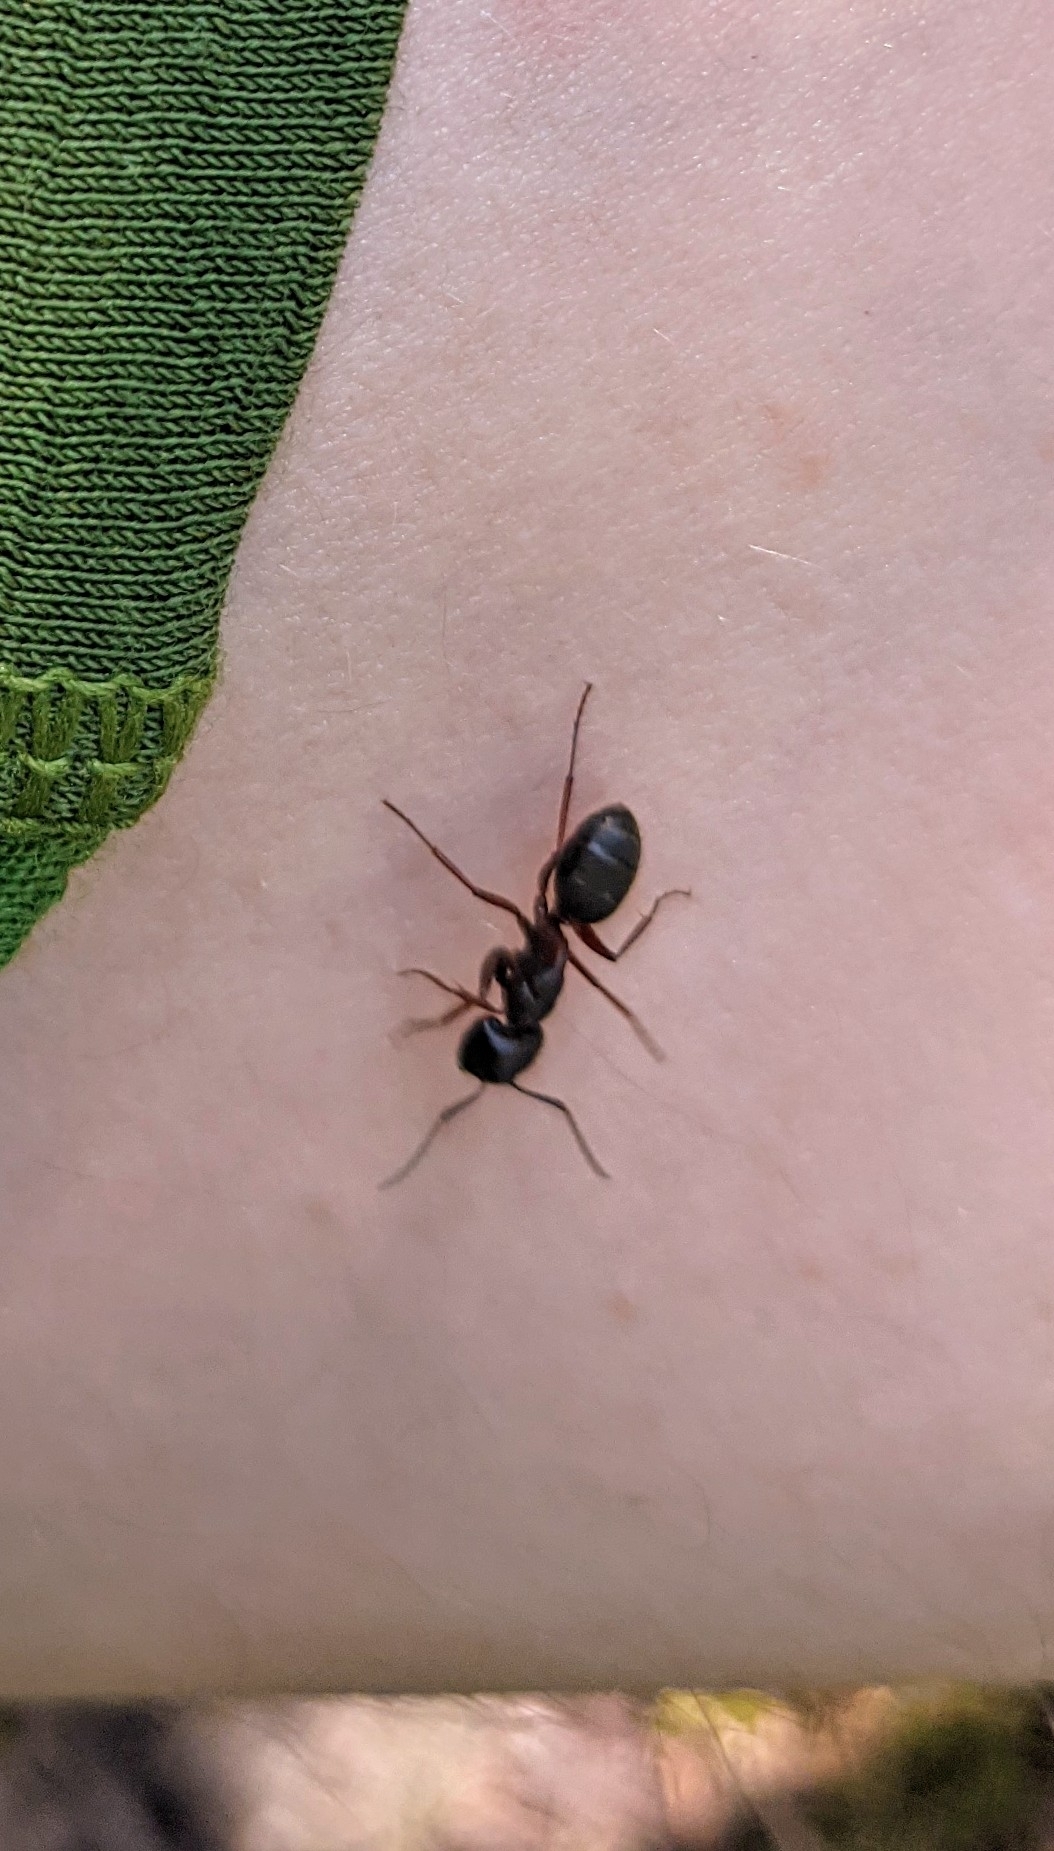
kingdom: Animalia
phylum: Arthropoda
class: Insecta
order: Hymenoptera
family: Formicidae
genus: Camponotus
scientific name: Camponotus herculeanus
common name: Hercules ant
